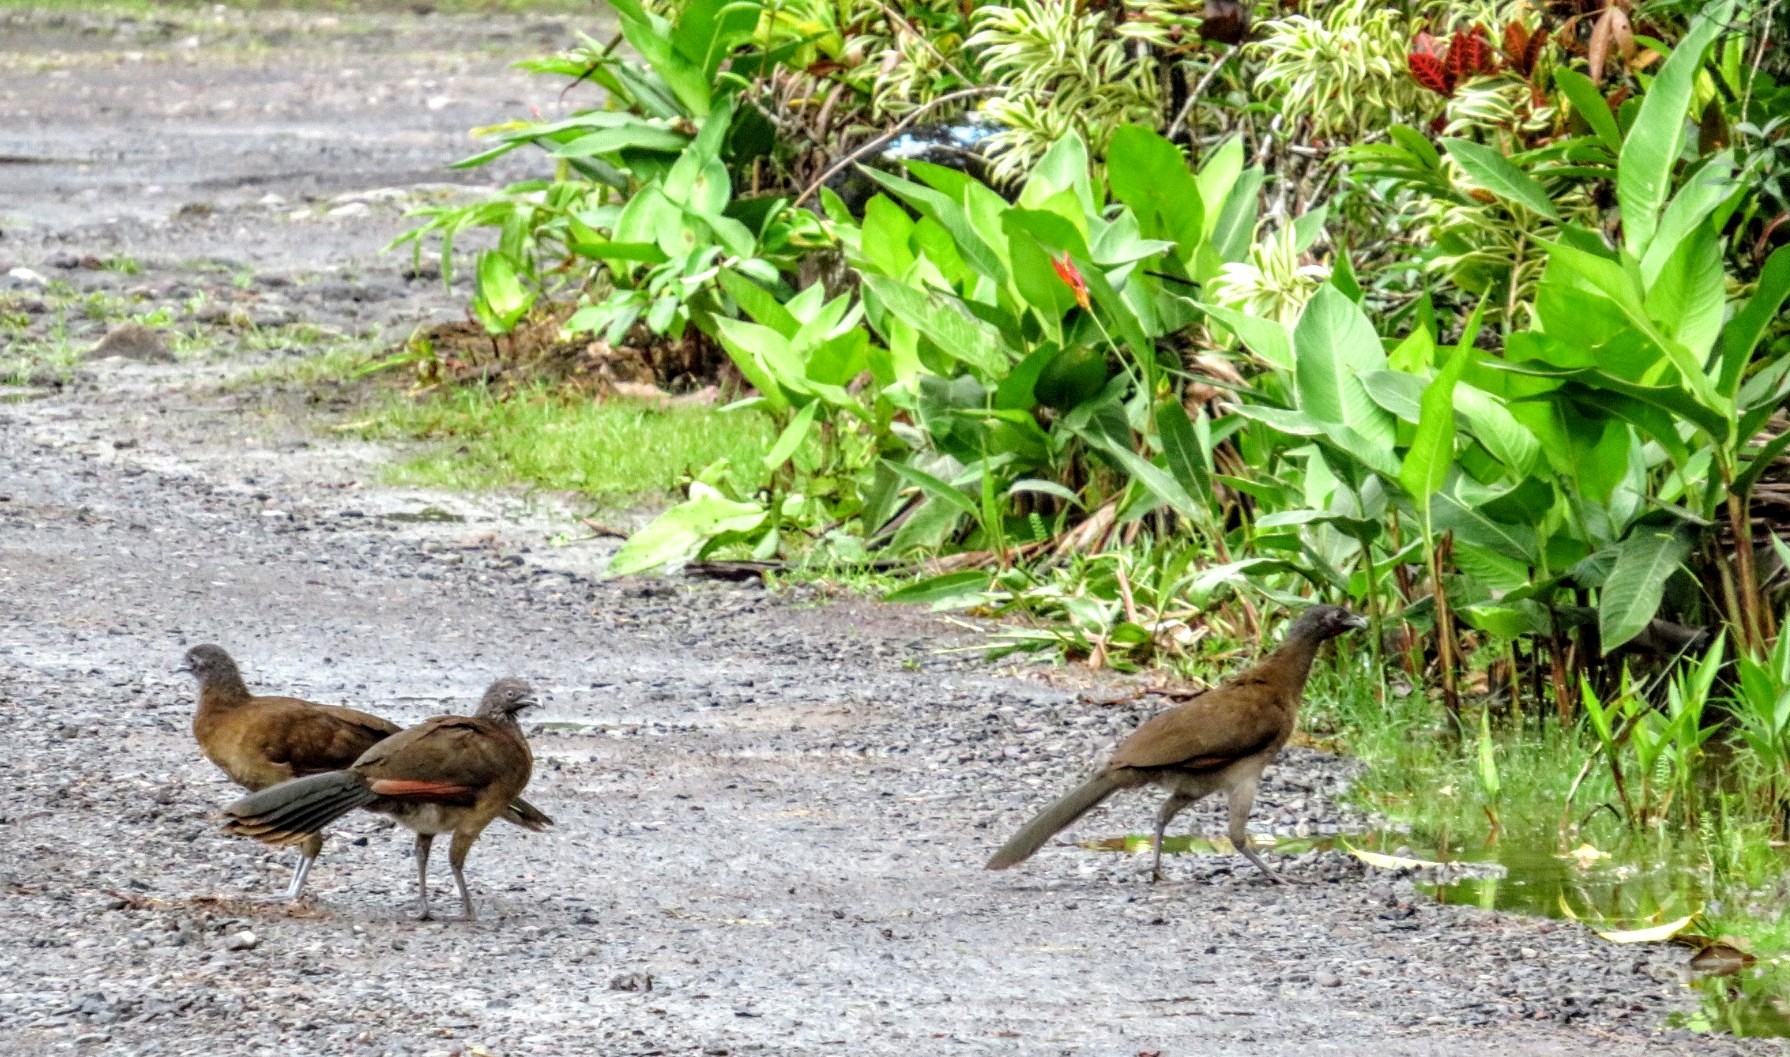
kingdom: Animalia
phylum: Chordata
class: Aves
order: Galliformes
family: Cracidae
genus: Ortalis
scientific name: Ortalis cinereiceps
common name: Grey-headed chachalaca
